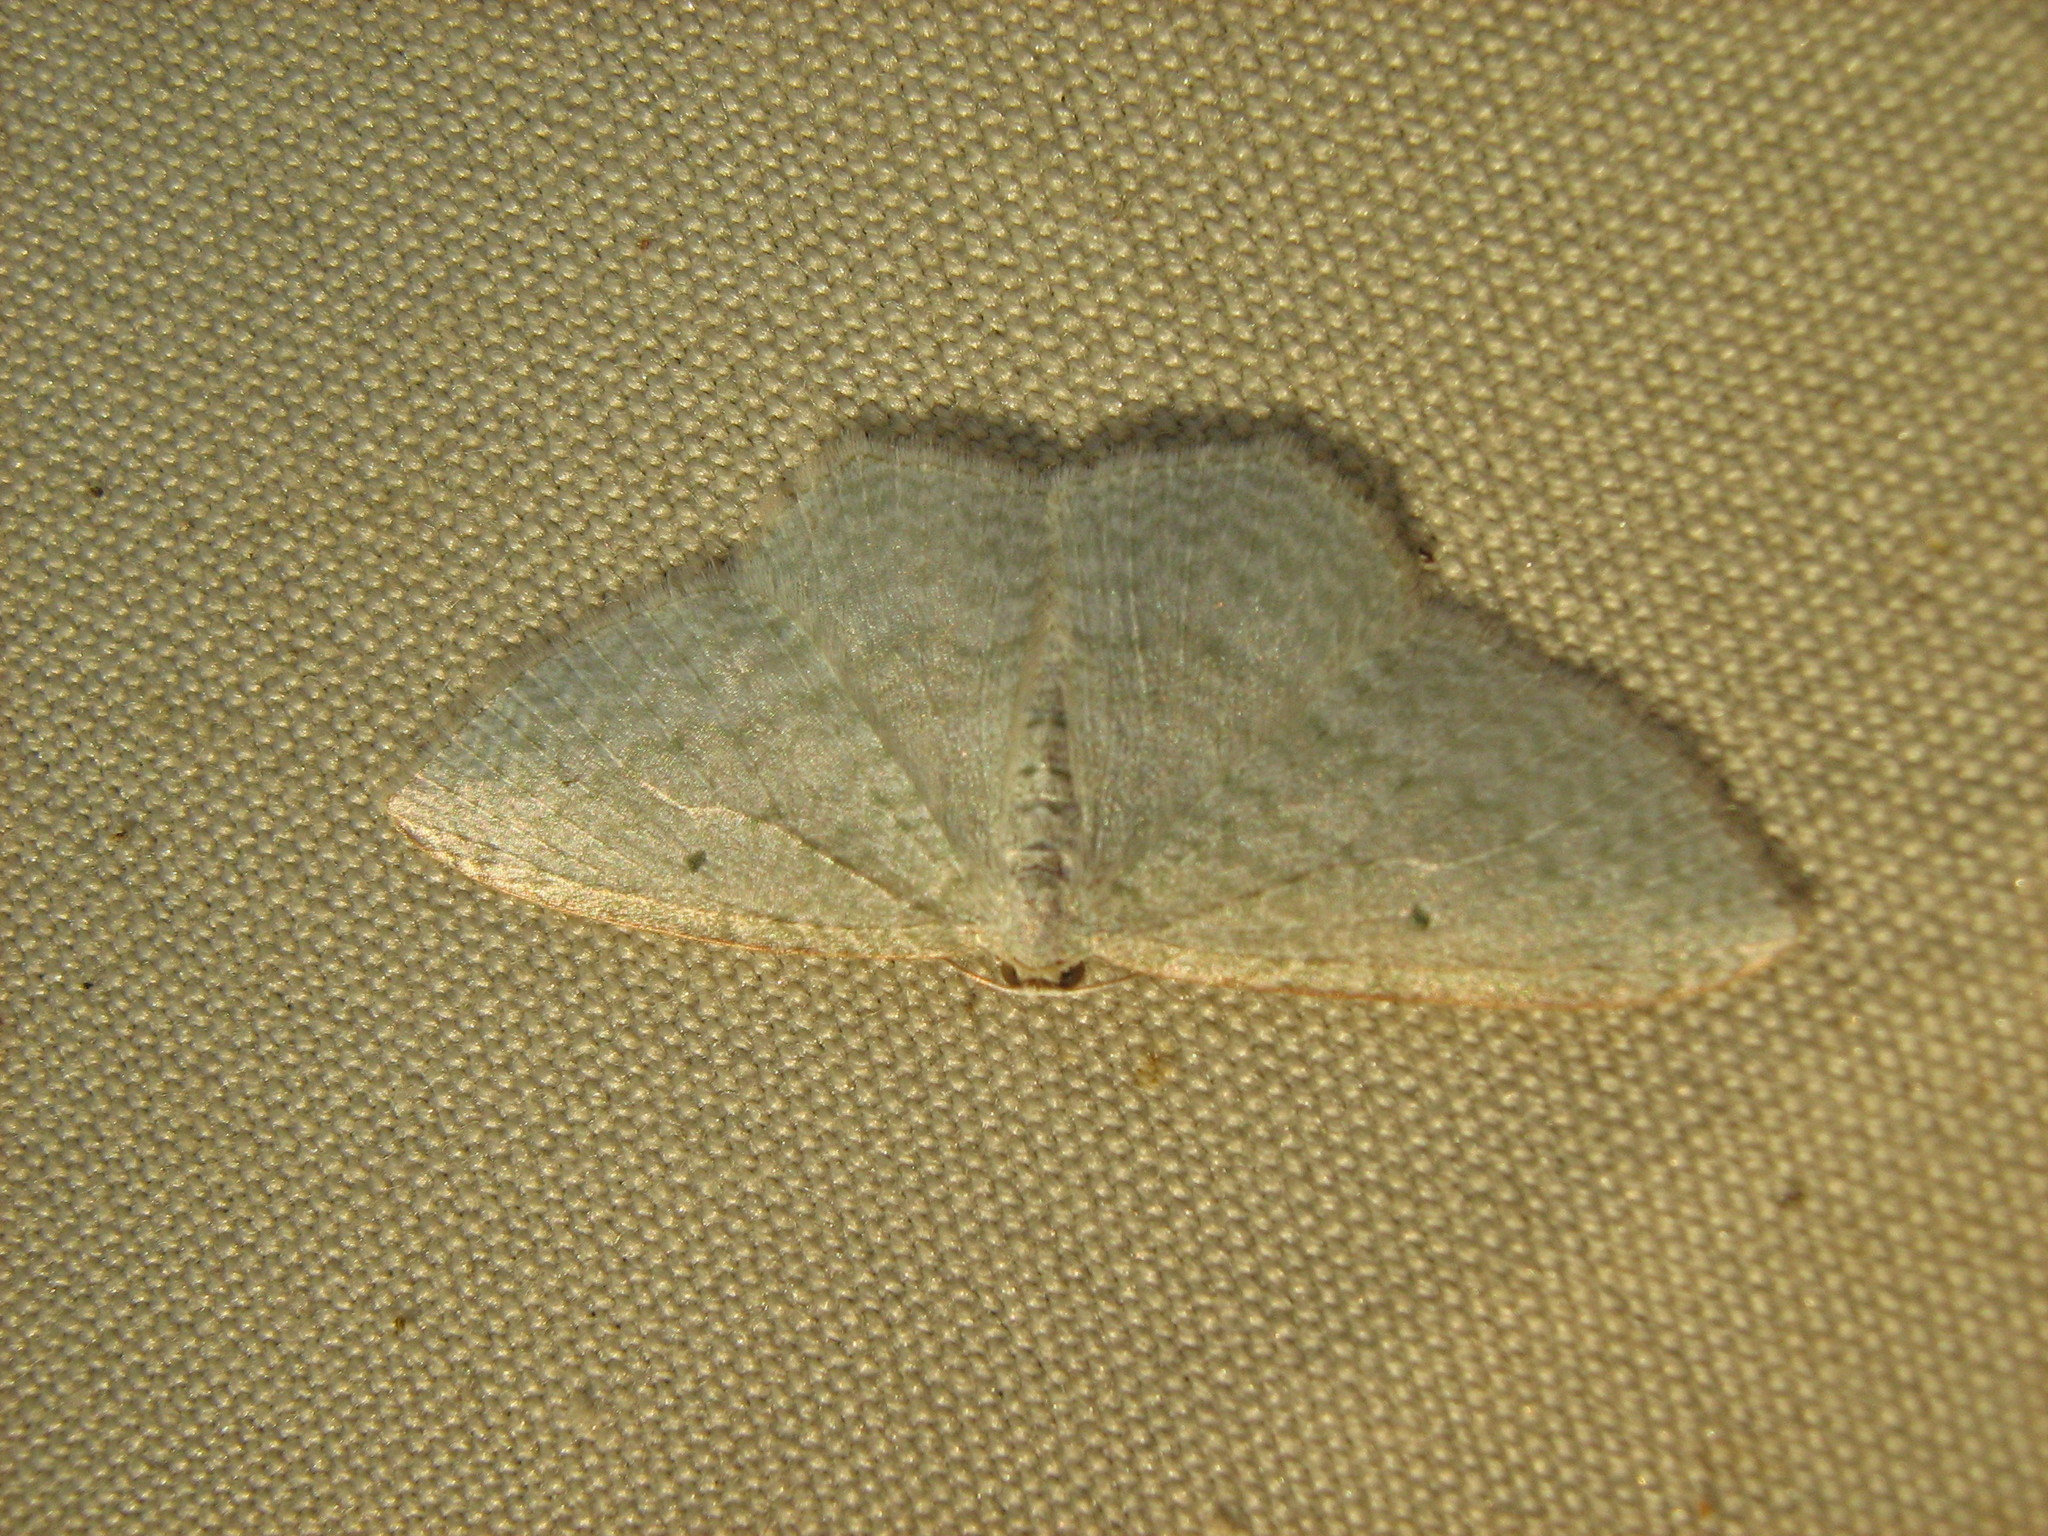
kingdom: Animalia
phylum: Arthropoda
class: Insecta
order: Lepidoptera
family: Geometridae
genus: Poecilasthena
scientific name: Poecilasthena pulchraria
